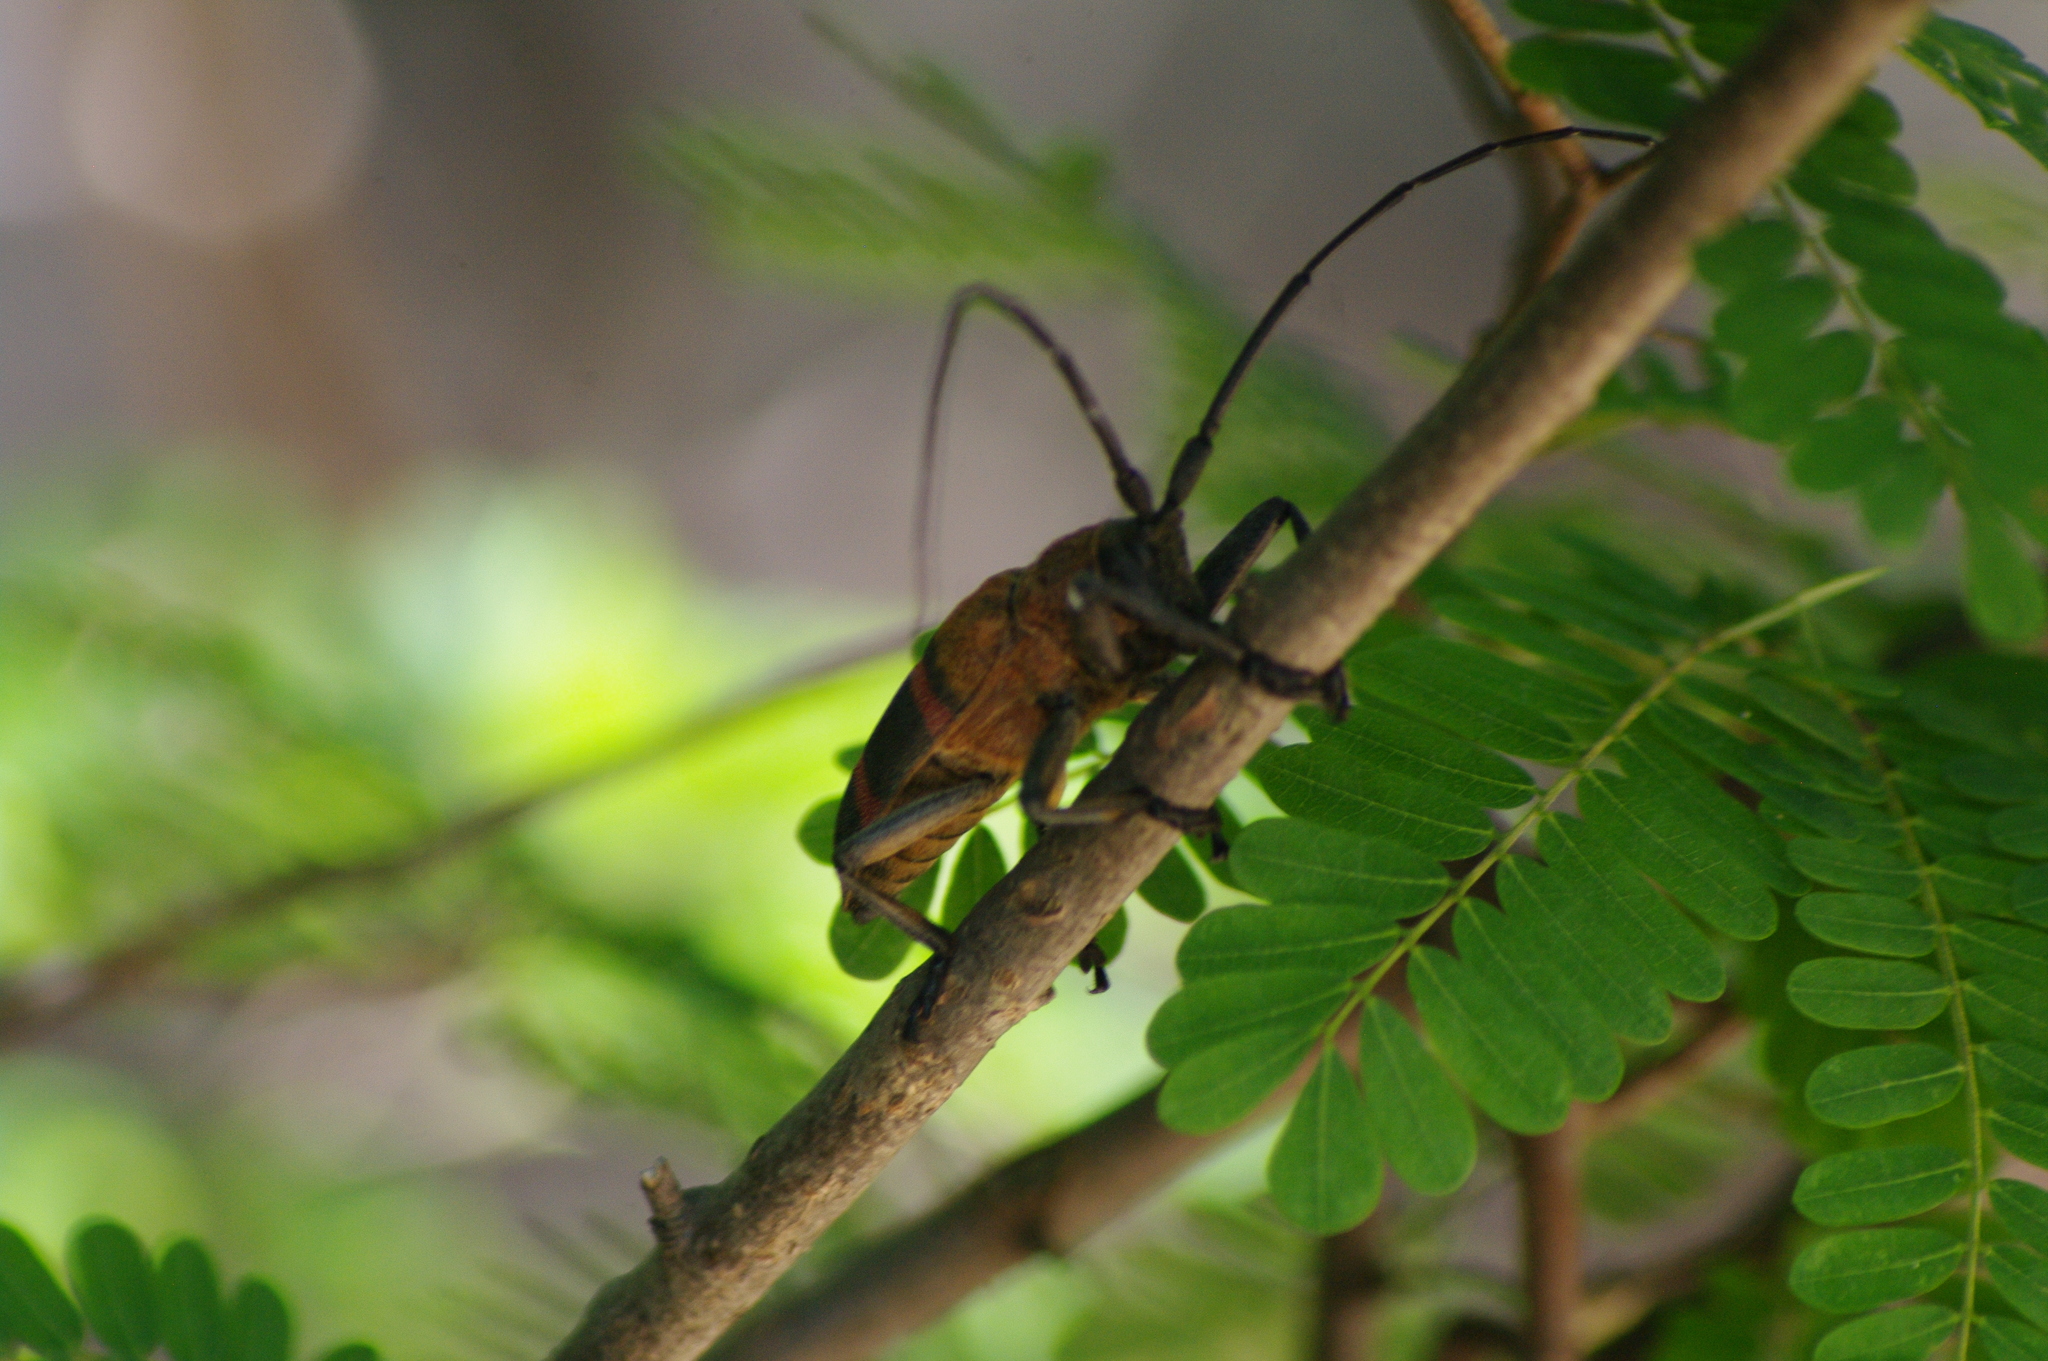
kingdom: Animalia
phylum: Arthropoda
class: Insecta
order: Coleoptera
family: Cerambycidae
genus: Ceroplesis
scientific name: Ceroplesis thunbergii
